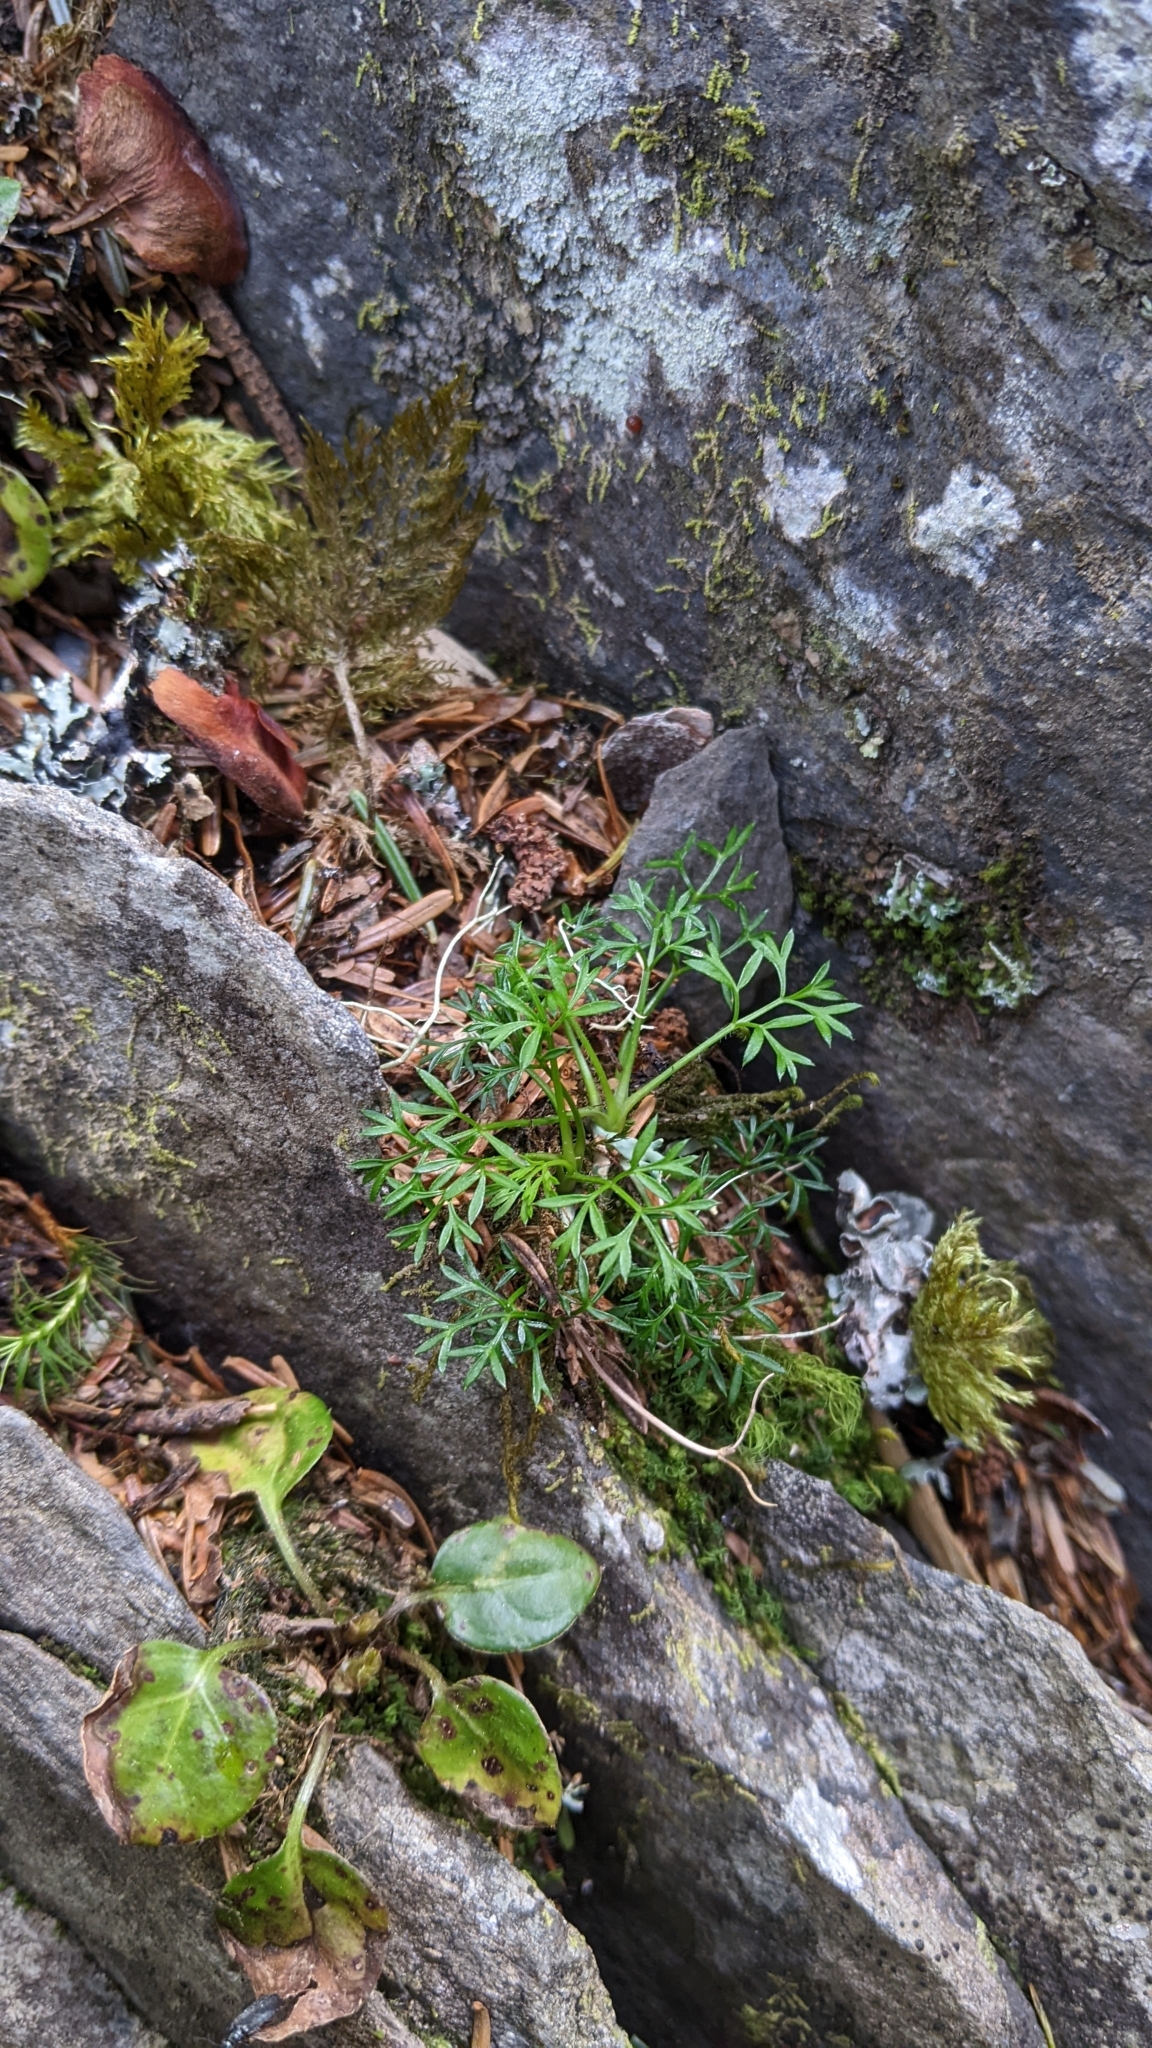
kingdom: Plantae
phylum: Tracheophyta
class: Magnoliopsida
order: Apiales
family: Apiaceae
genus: Chaerophyllum
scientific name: Chaerophyllum involucratum
